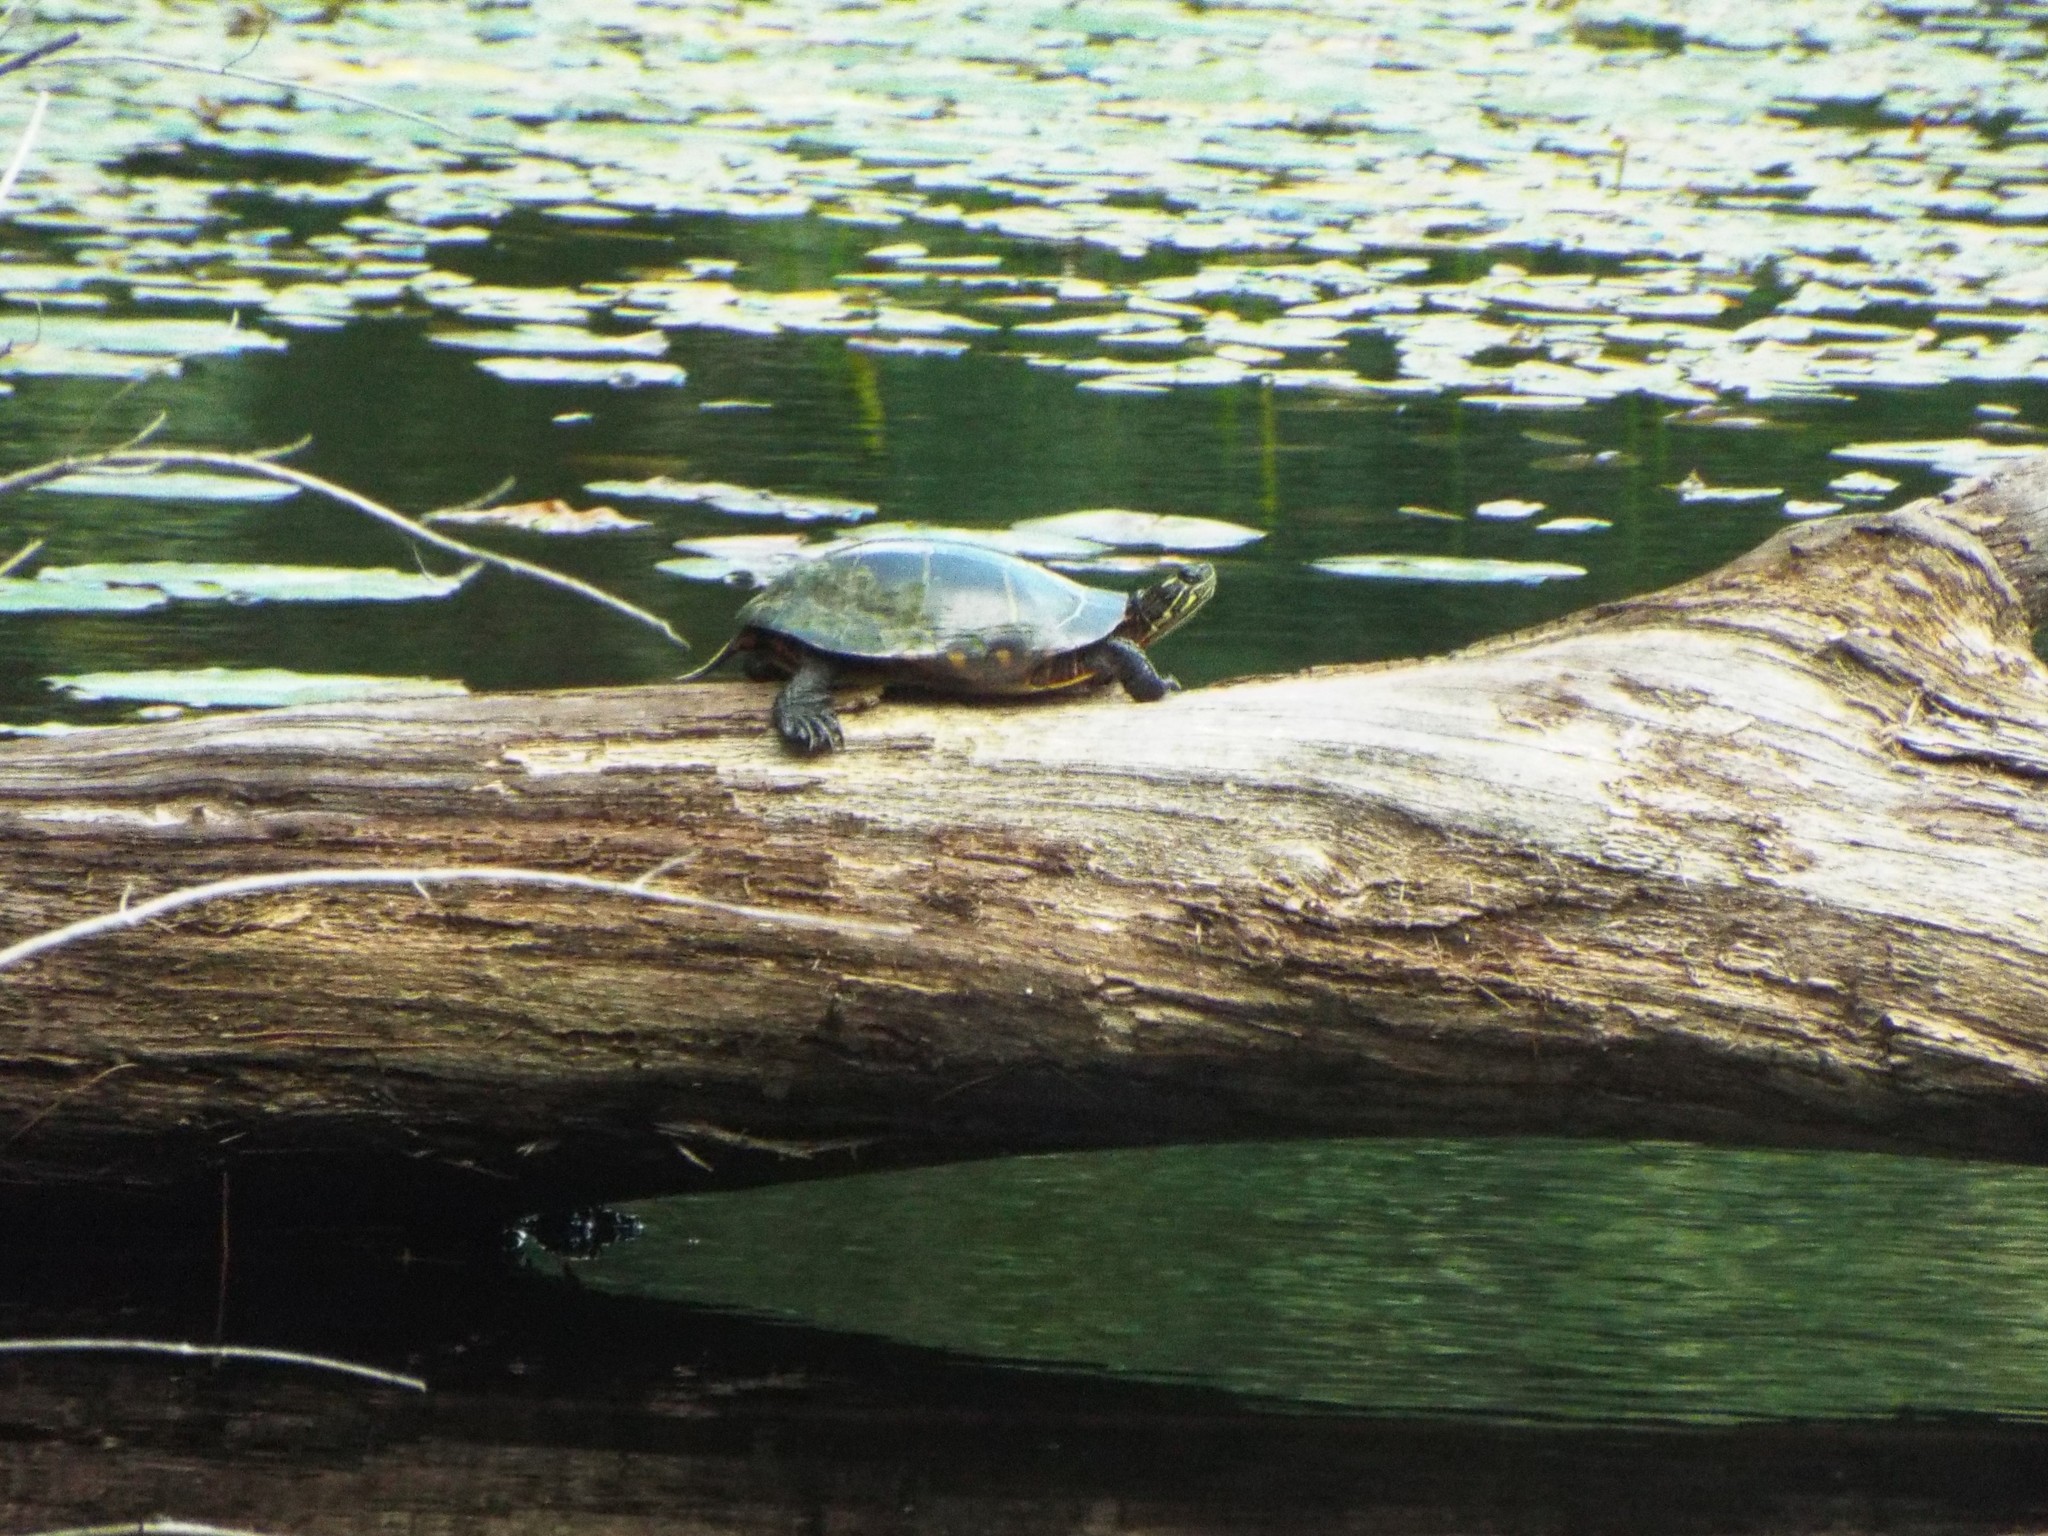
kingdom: Animalia
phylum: Chordata
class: Testudines
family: Emydidae
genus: Chrysemys
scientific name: Chrysemys picta
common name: Painted turtle
